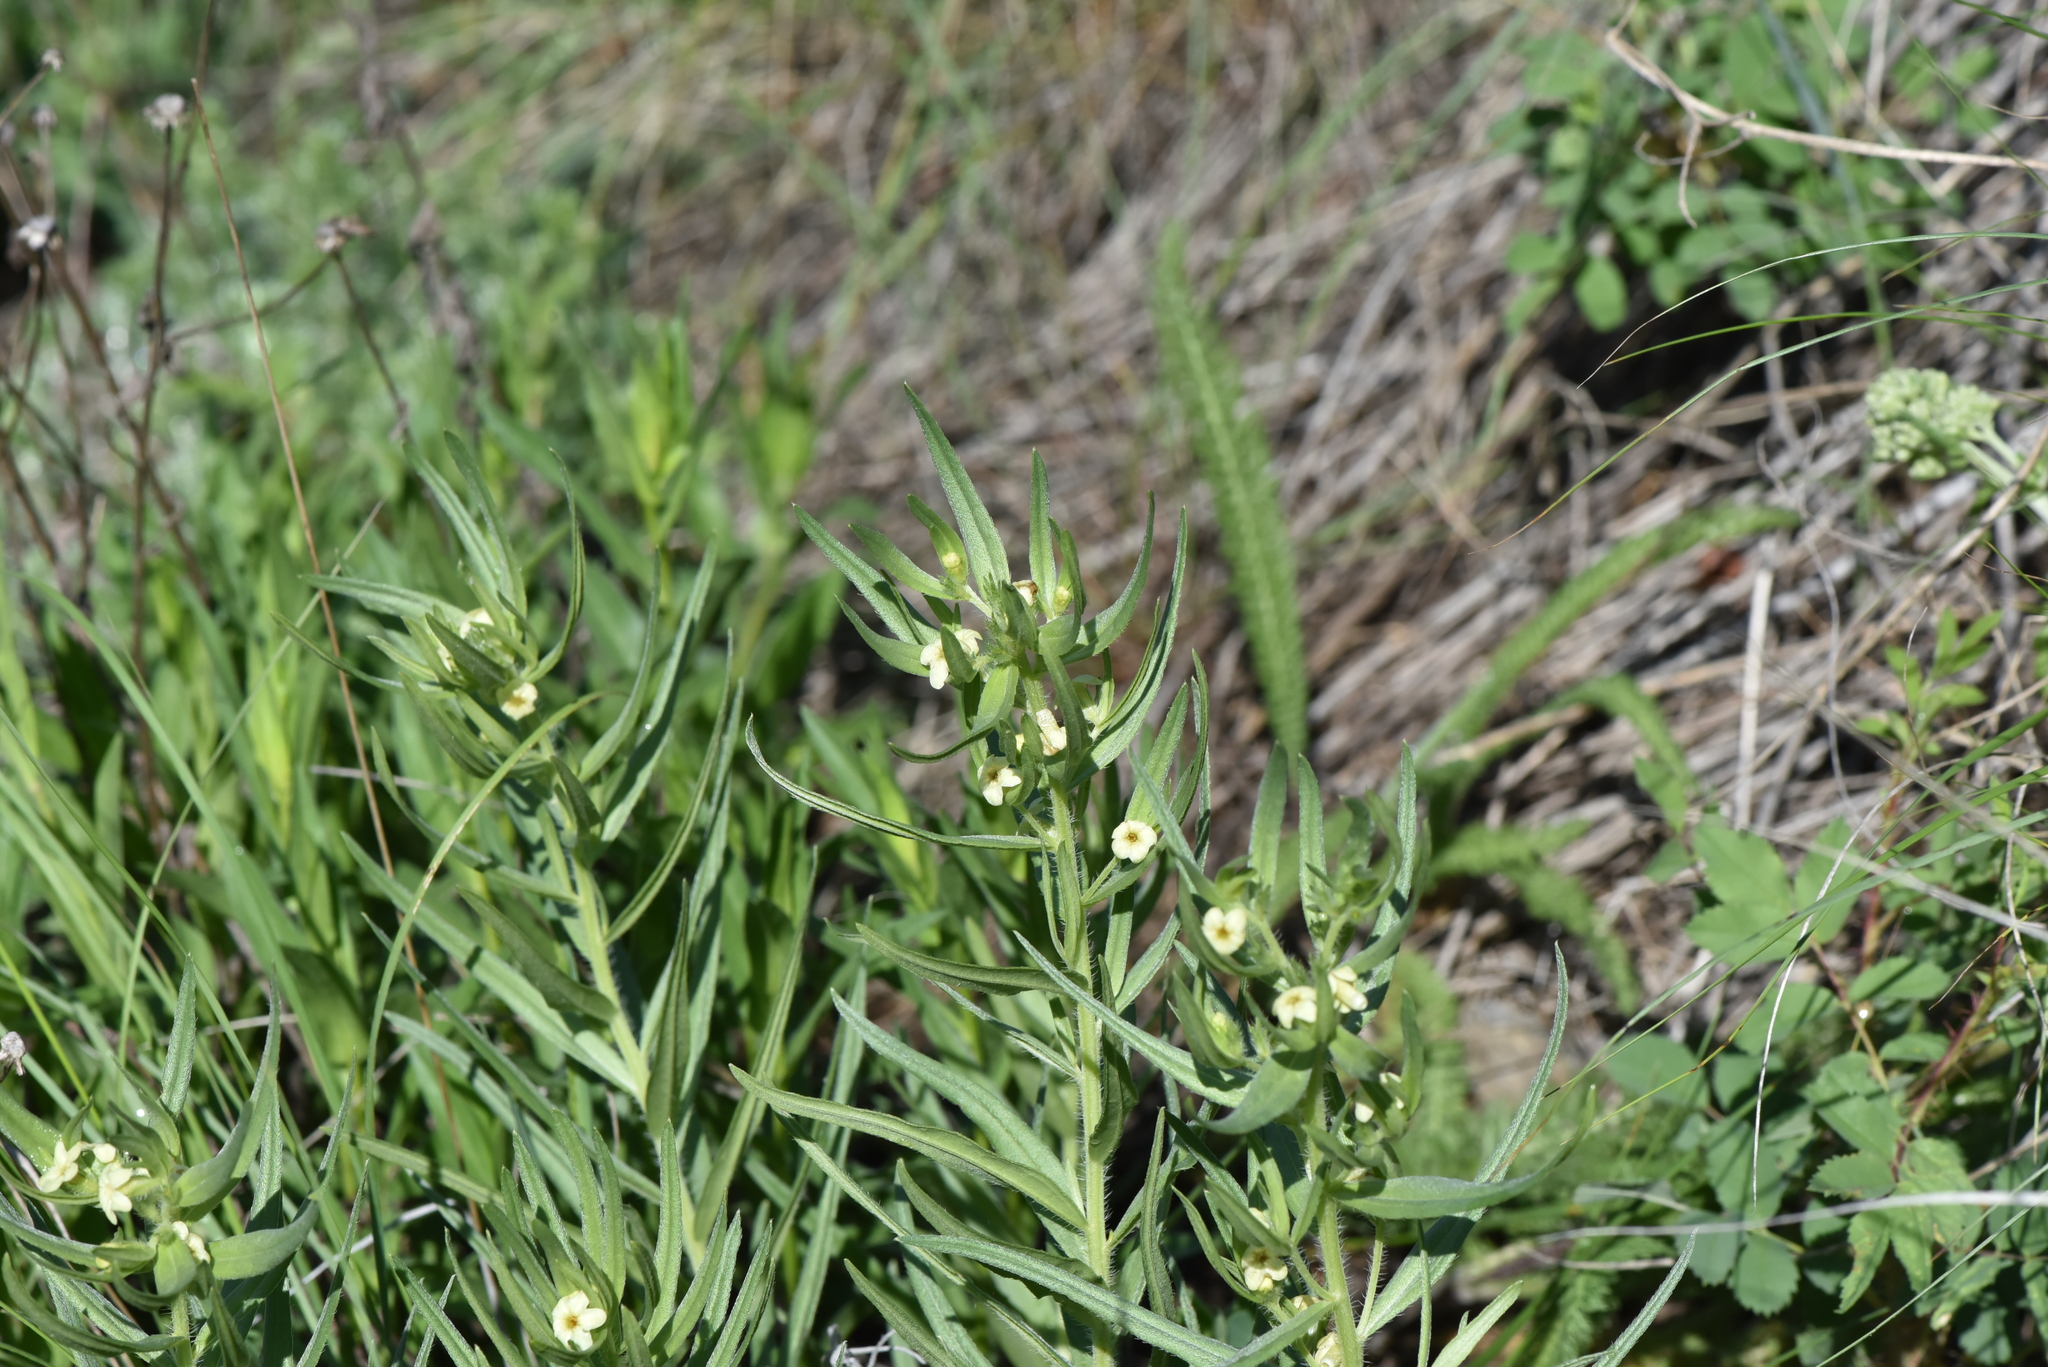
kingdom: Plantae
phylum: Tracheophyta
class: Magnoliopsida
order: Boraginales
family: Boraginaceae
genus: Lithospermum
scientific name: Lithospermum ruderale
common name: Western gromwell
